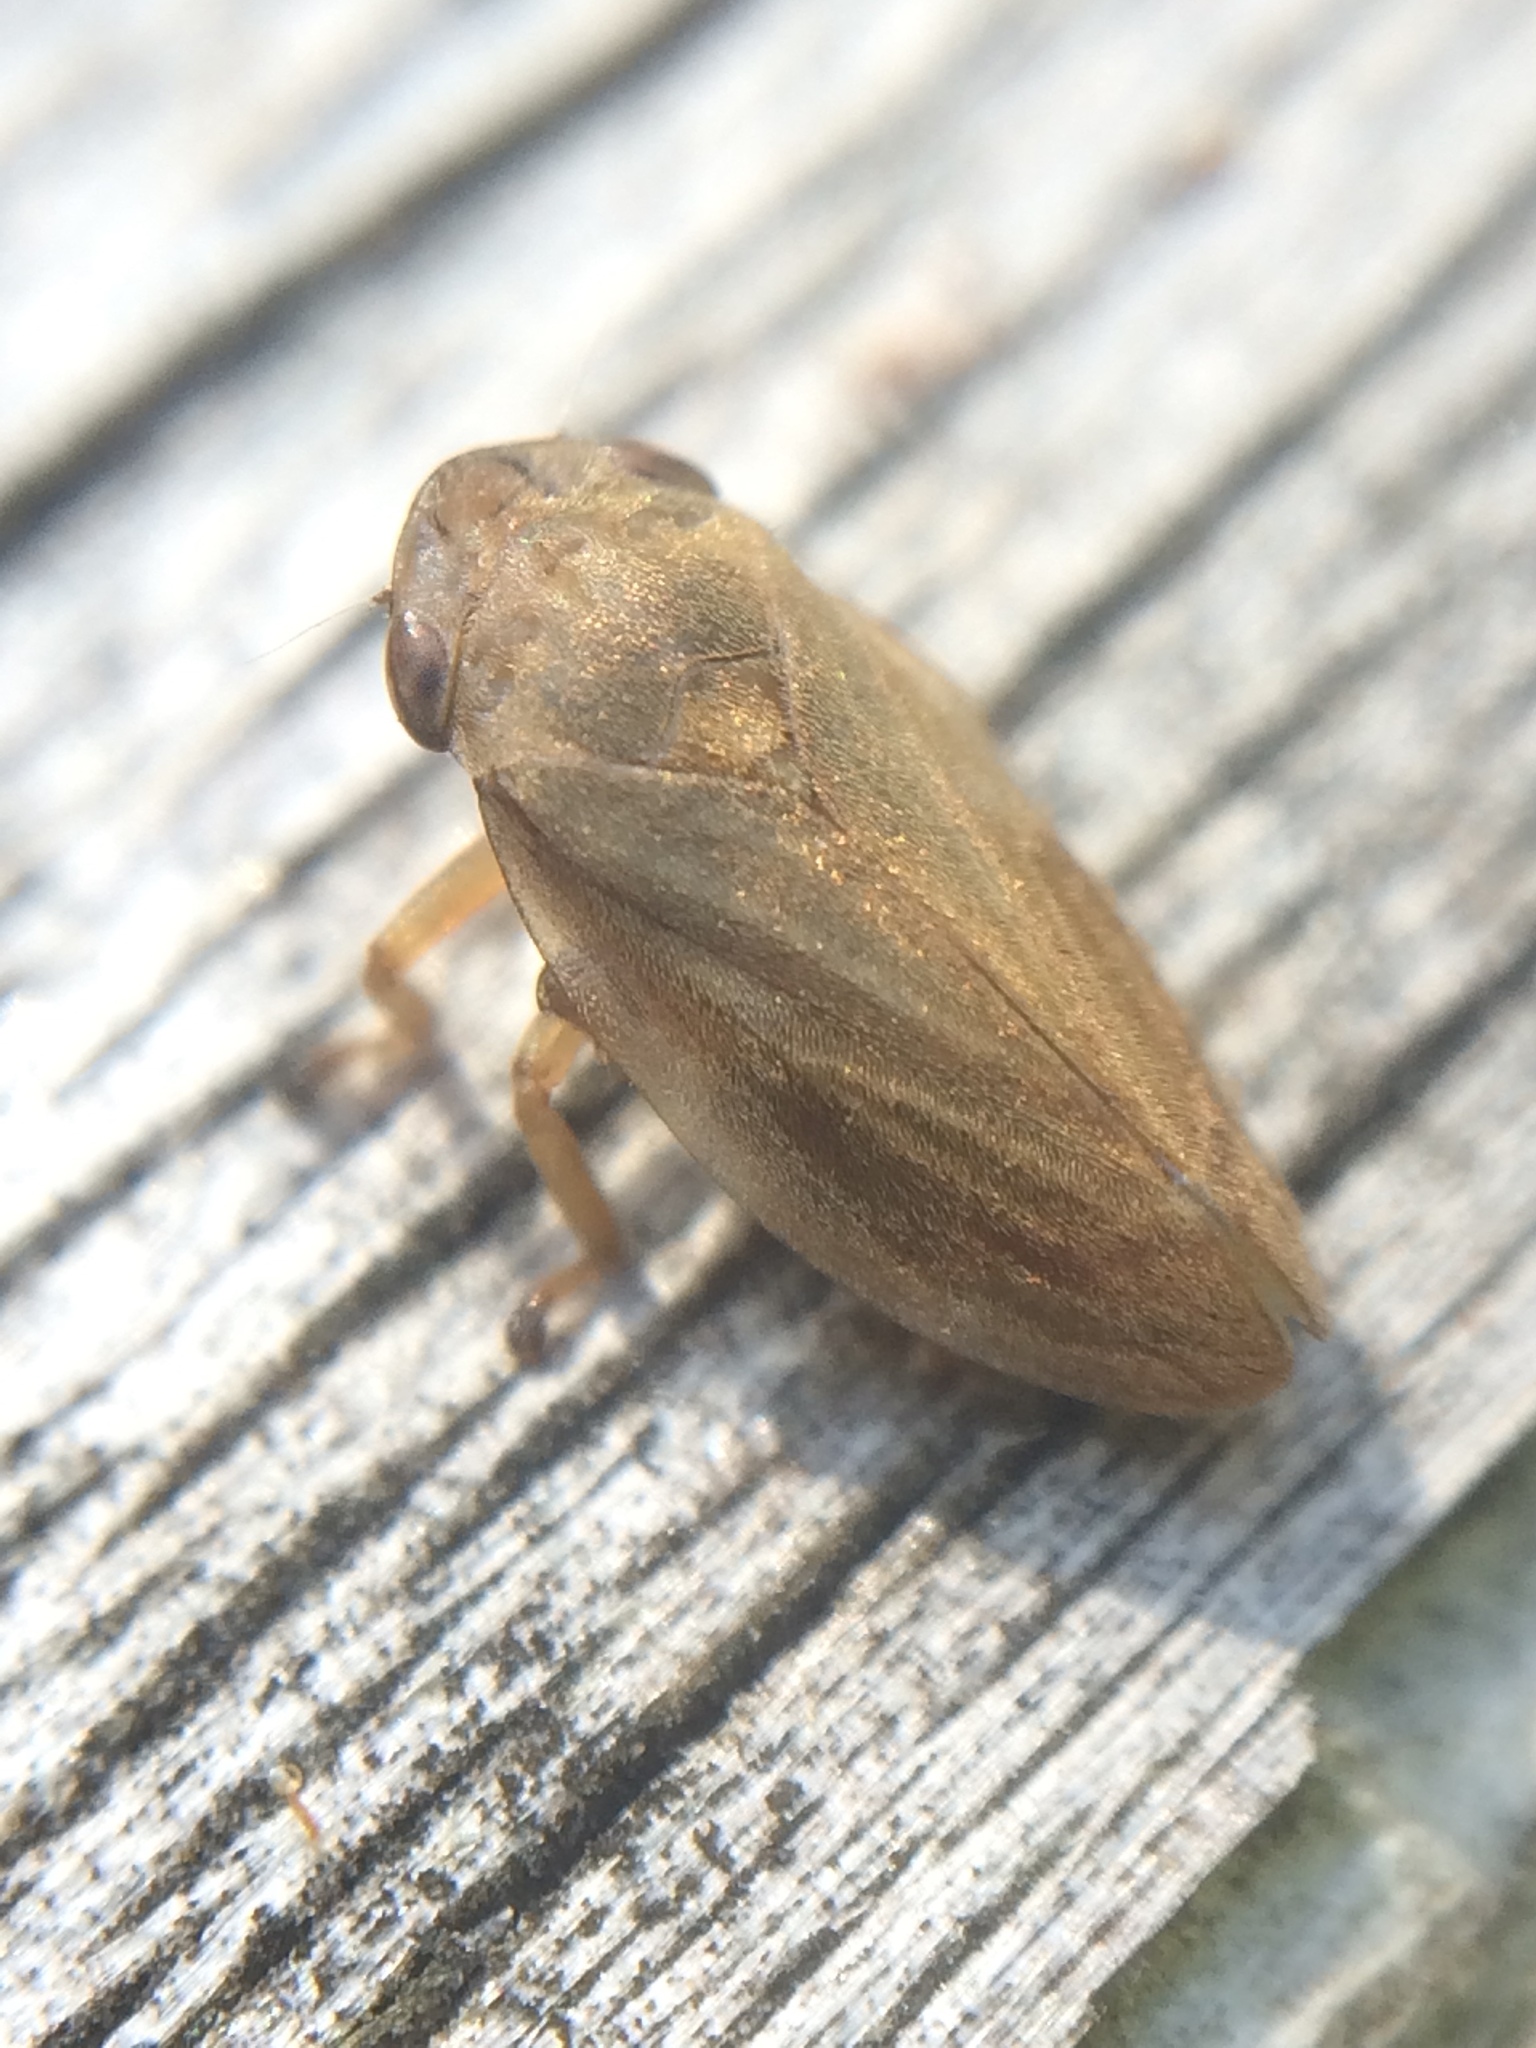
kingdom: Animalia
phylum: Arthropoda
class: Insecta
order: Hemiptera
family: Aphrophoridae
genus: Philaenus
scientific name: Philaenus spumarius
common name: Meadow spittlebug
